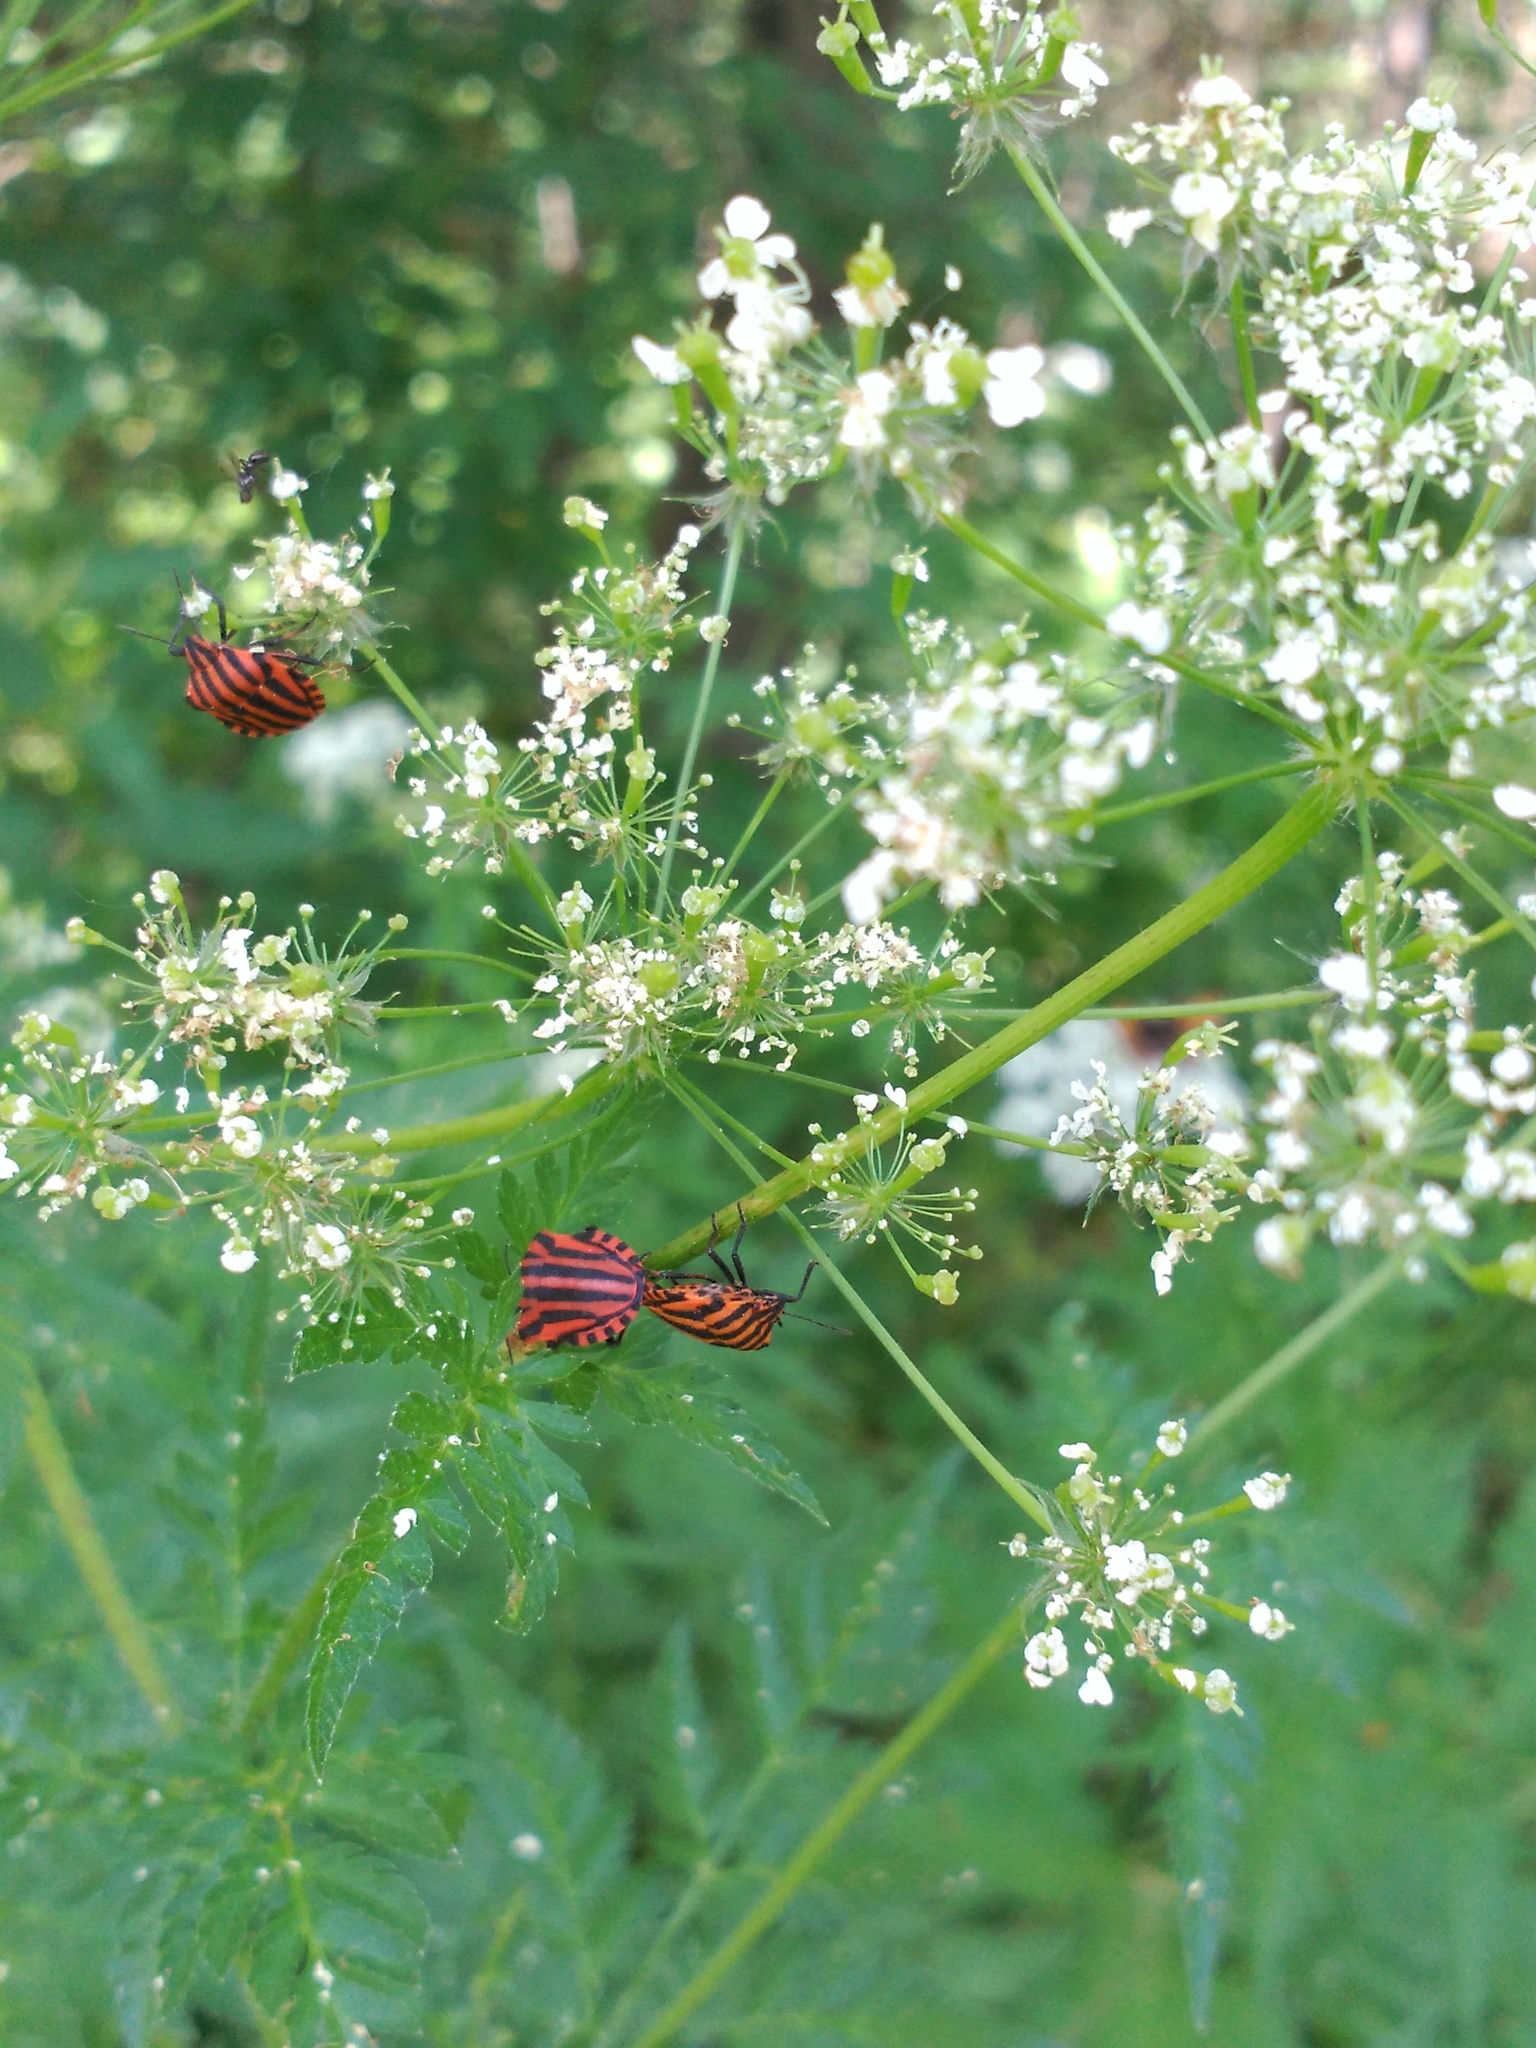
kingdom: Animalia
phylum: Arthropoda
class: Insecta
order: Hemiptera
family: Pentatomidae
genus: Graphosoma
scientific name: Graphosoma italicum
